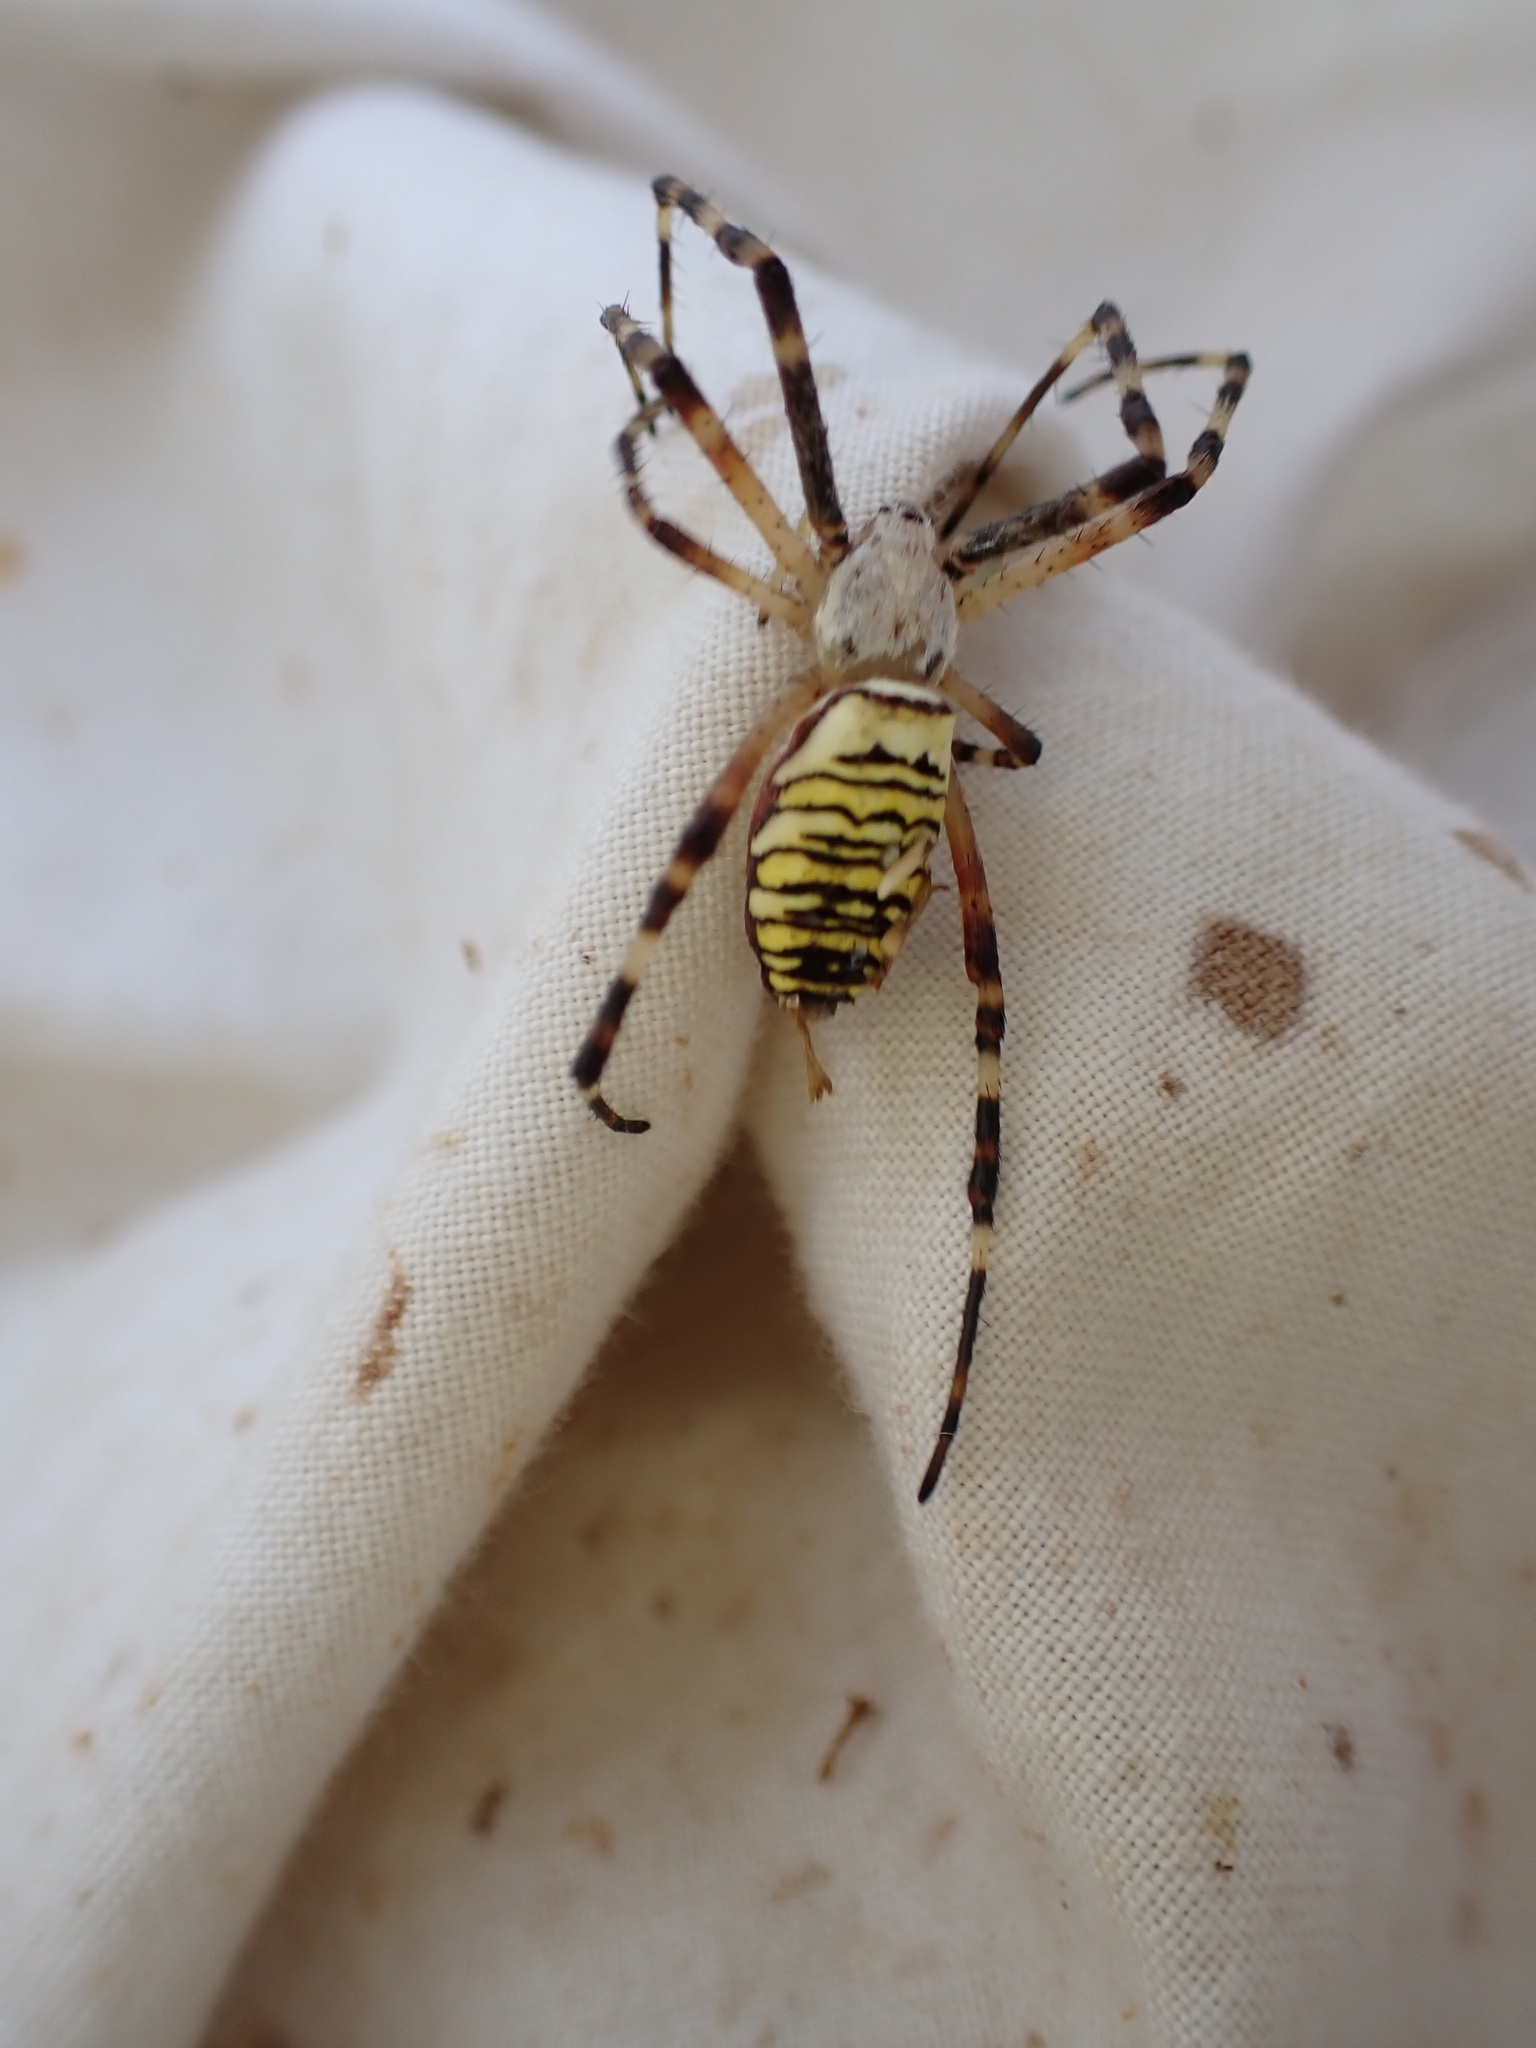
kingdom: Animalia
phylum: Arthropoda
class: Arachnida
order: Araneae
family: Araneidae
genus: Argiope
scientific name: Argiope bruennichi
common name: Wasp spider
